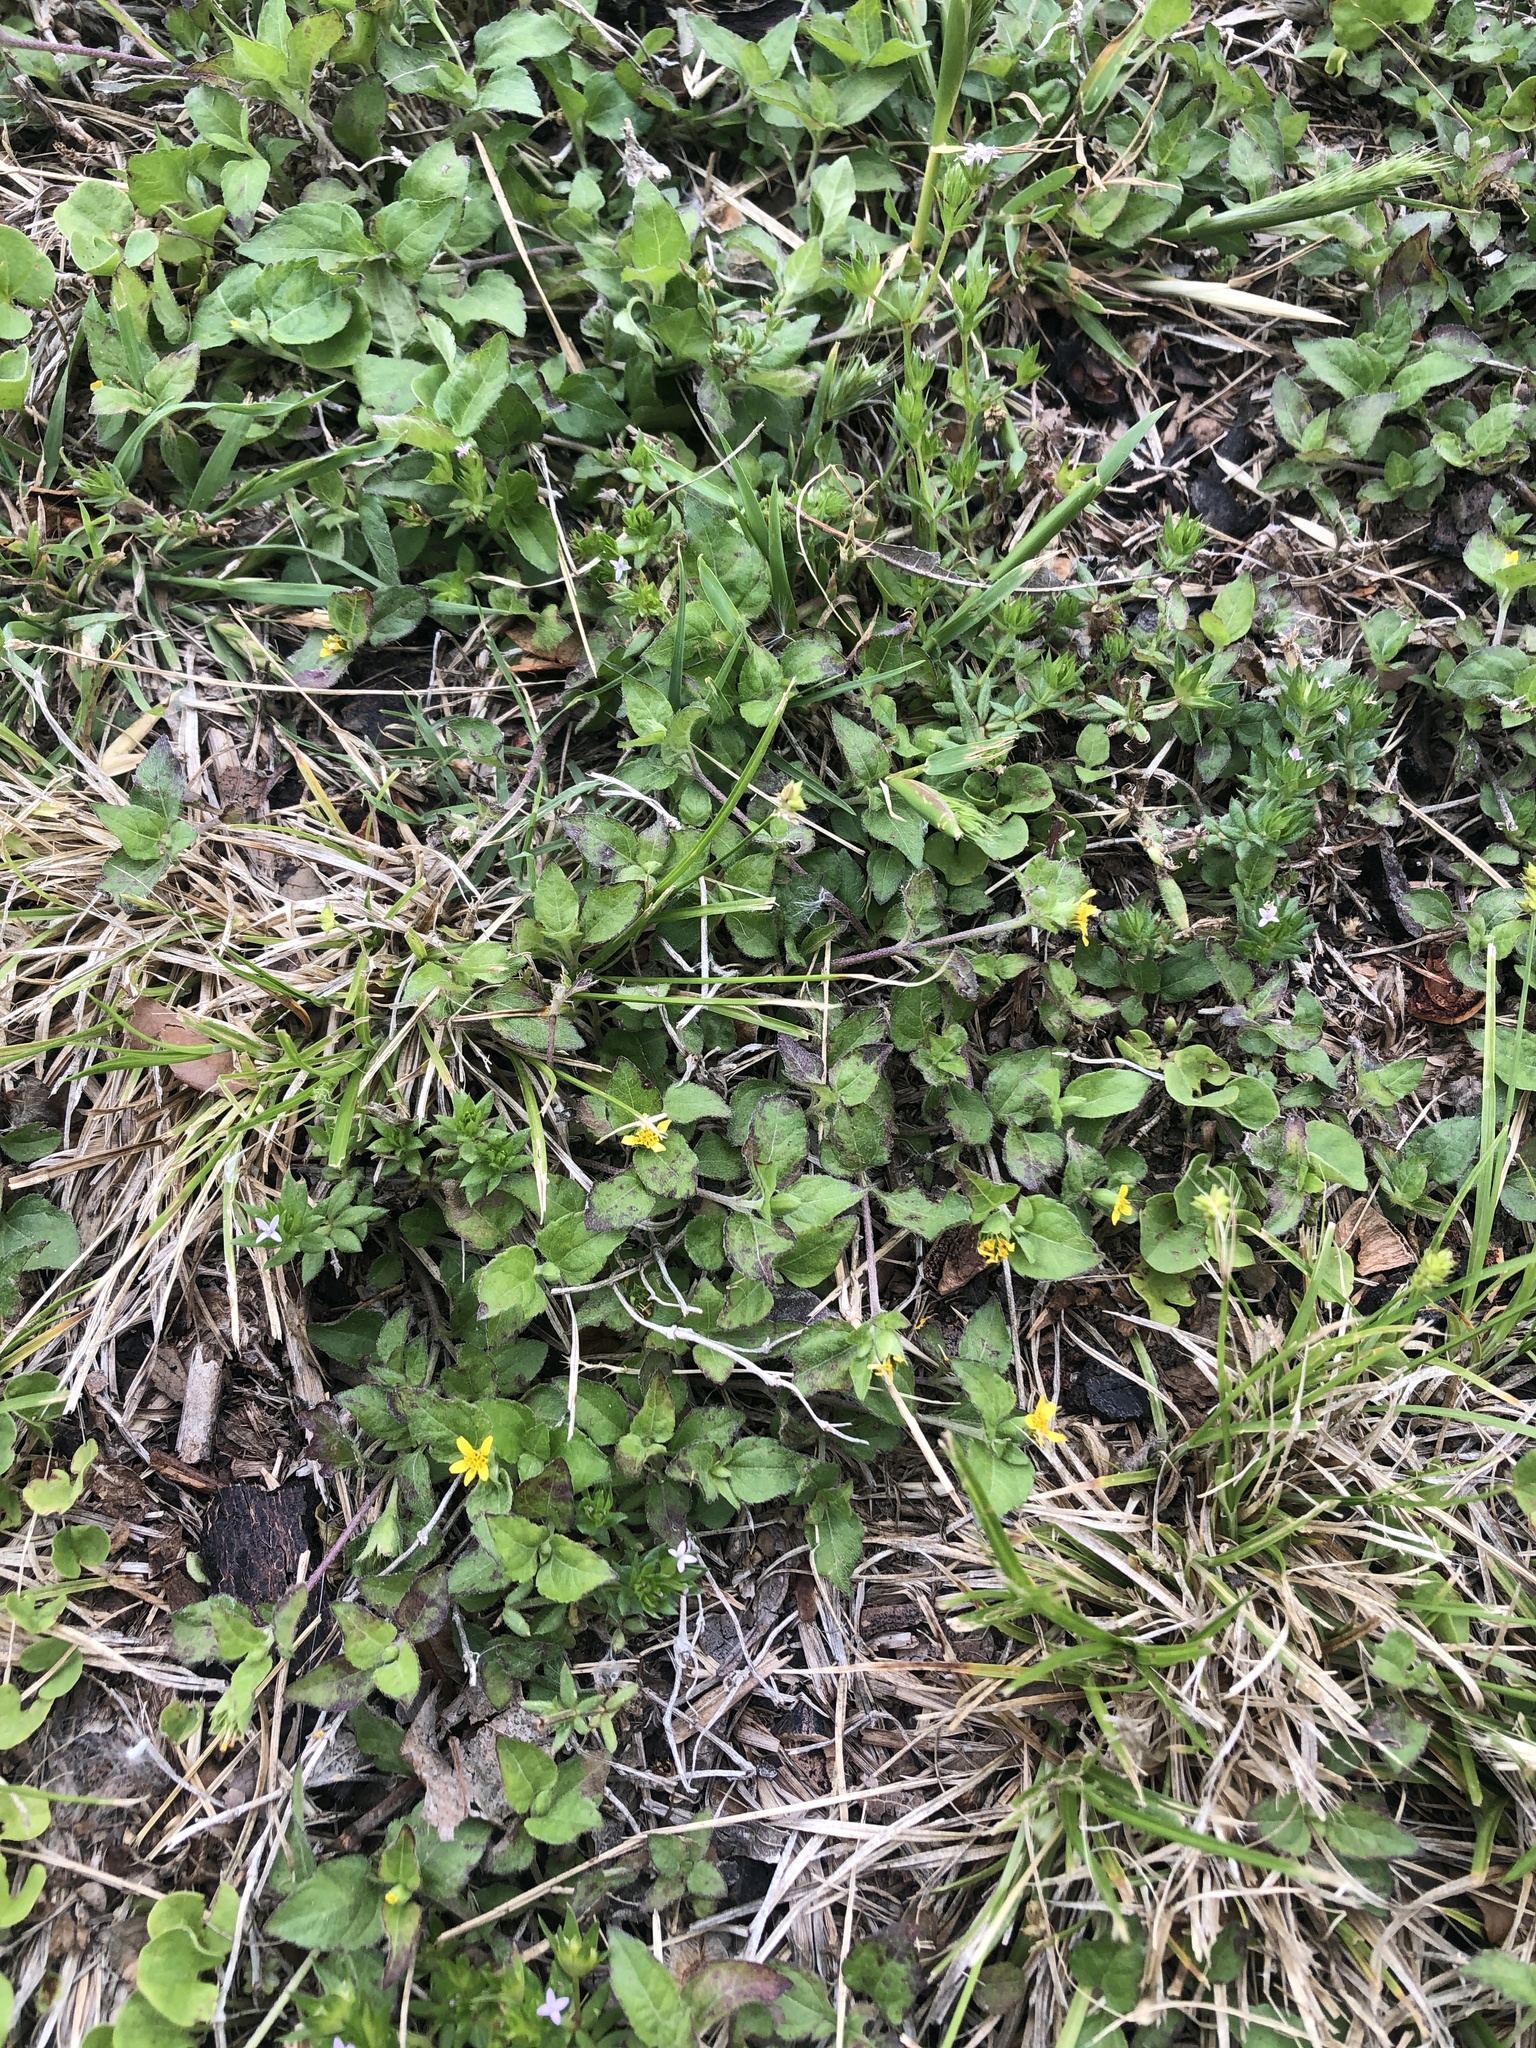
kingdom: Plantae
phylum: Tracheophyta
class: Magnoliopsida
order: Asterales
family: Asteraceae
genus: Calyptocarpus
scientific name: Calyptocarpus vialis
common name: Straggler daisy
